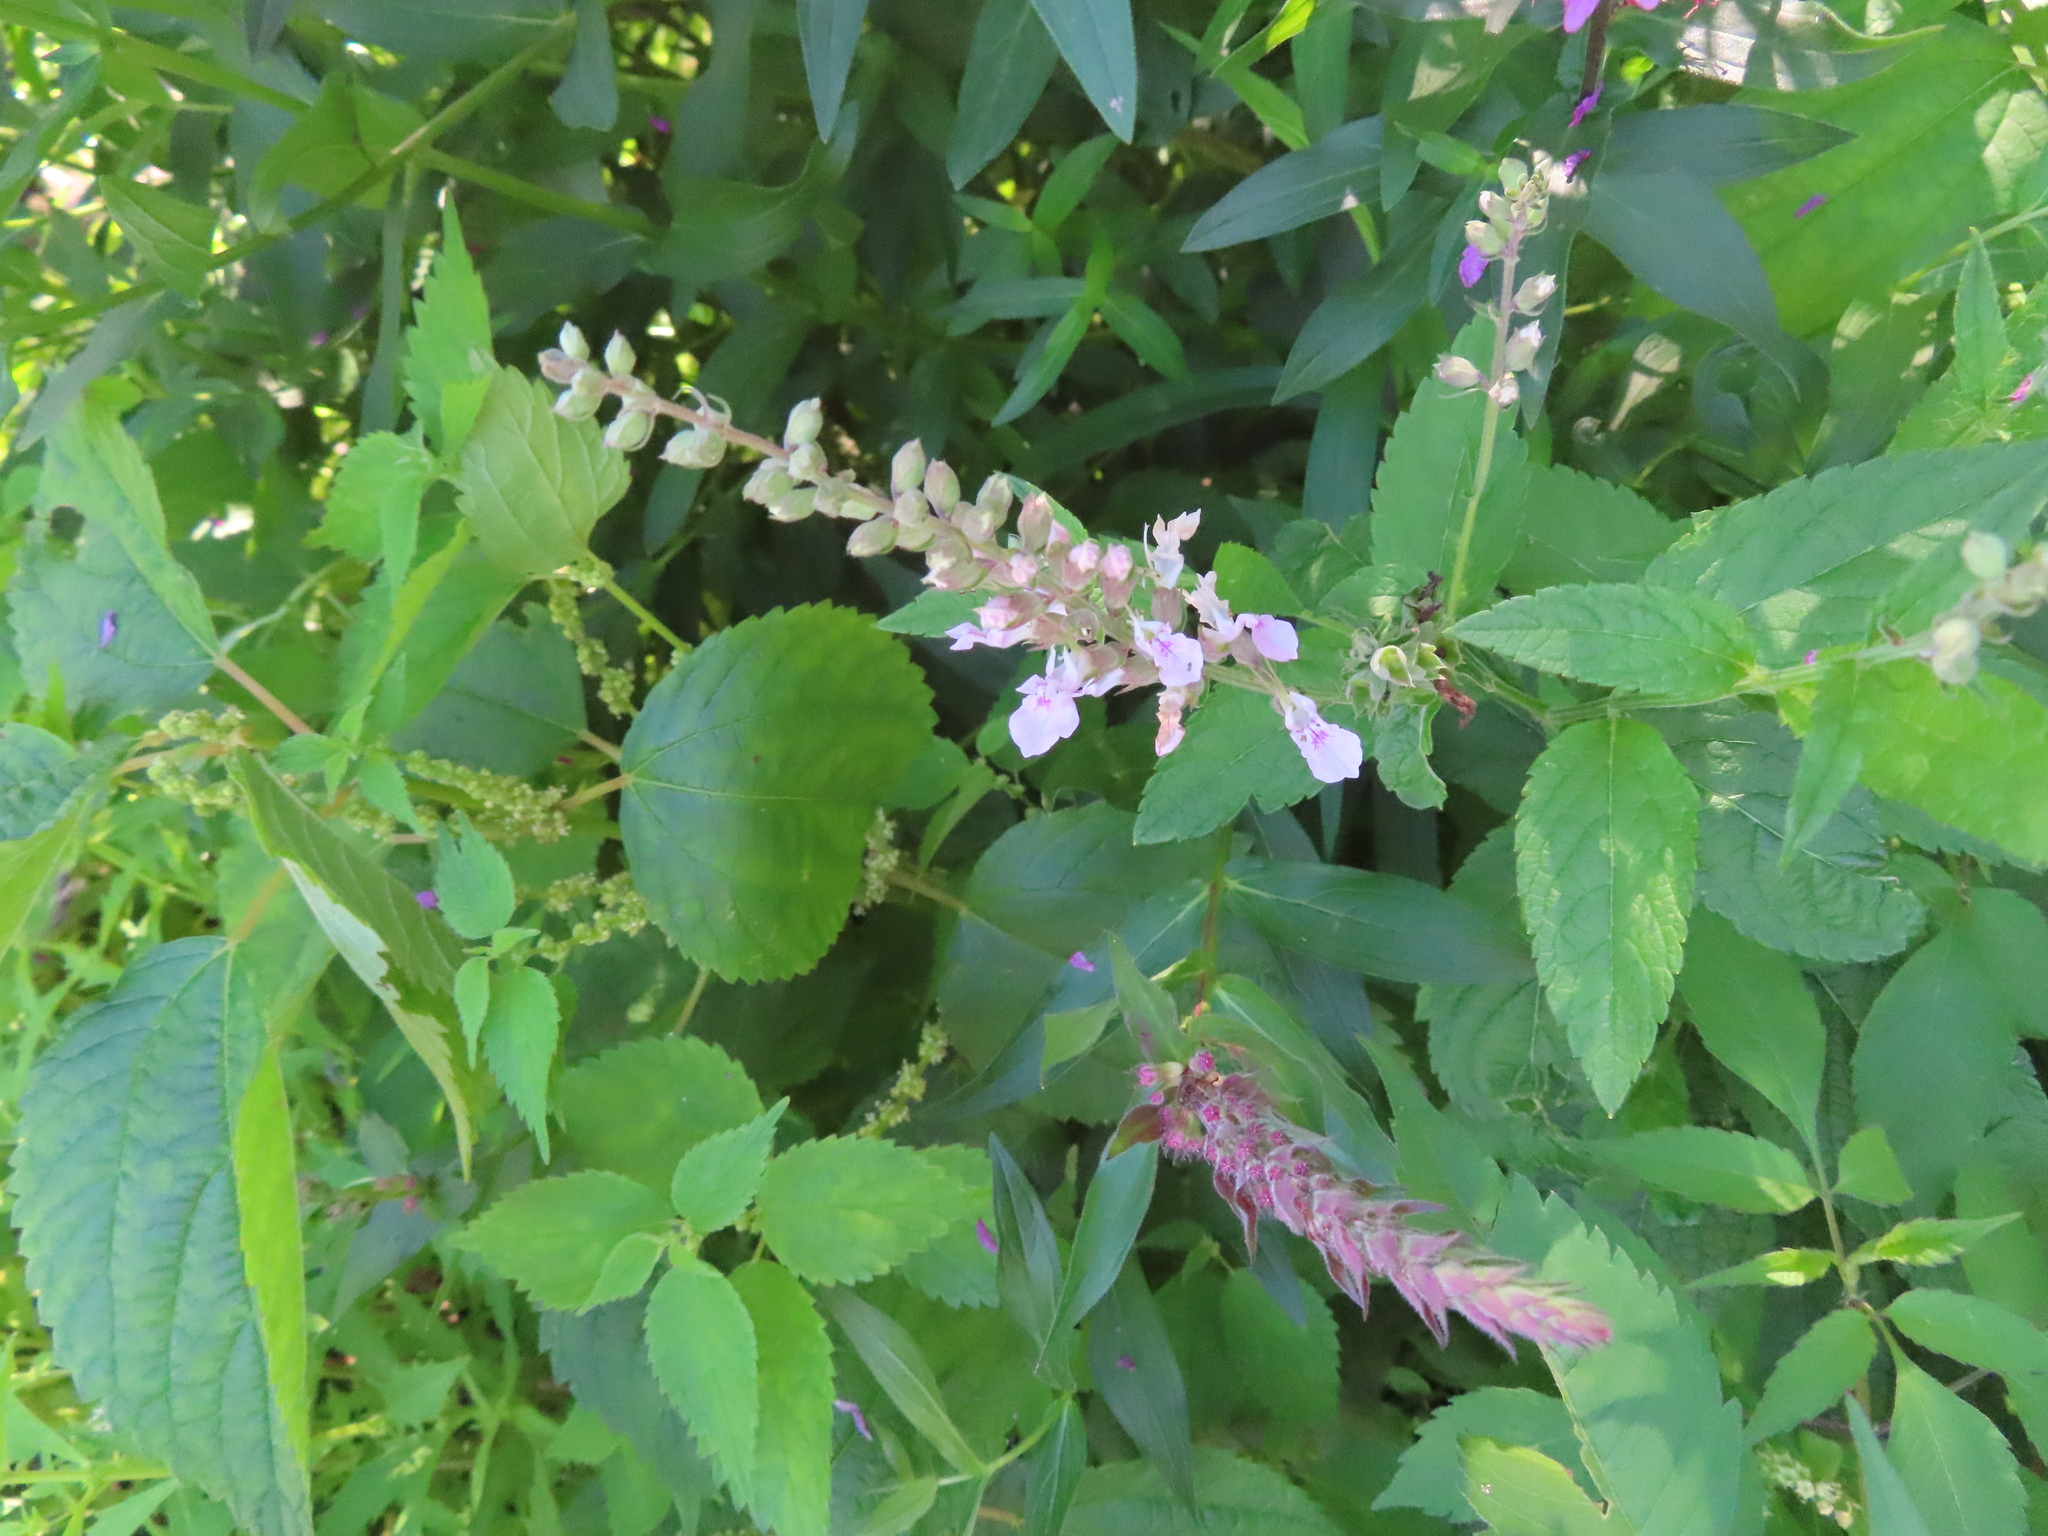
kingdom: Plantae
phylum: Tracheophyta
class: Magnoliopsida
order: Lamiales
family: Lamiaceae
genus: Teucrium
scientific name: Teucrium canadense
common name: American germander
